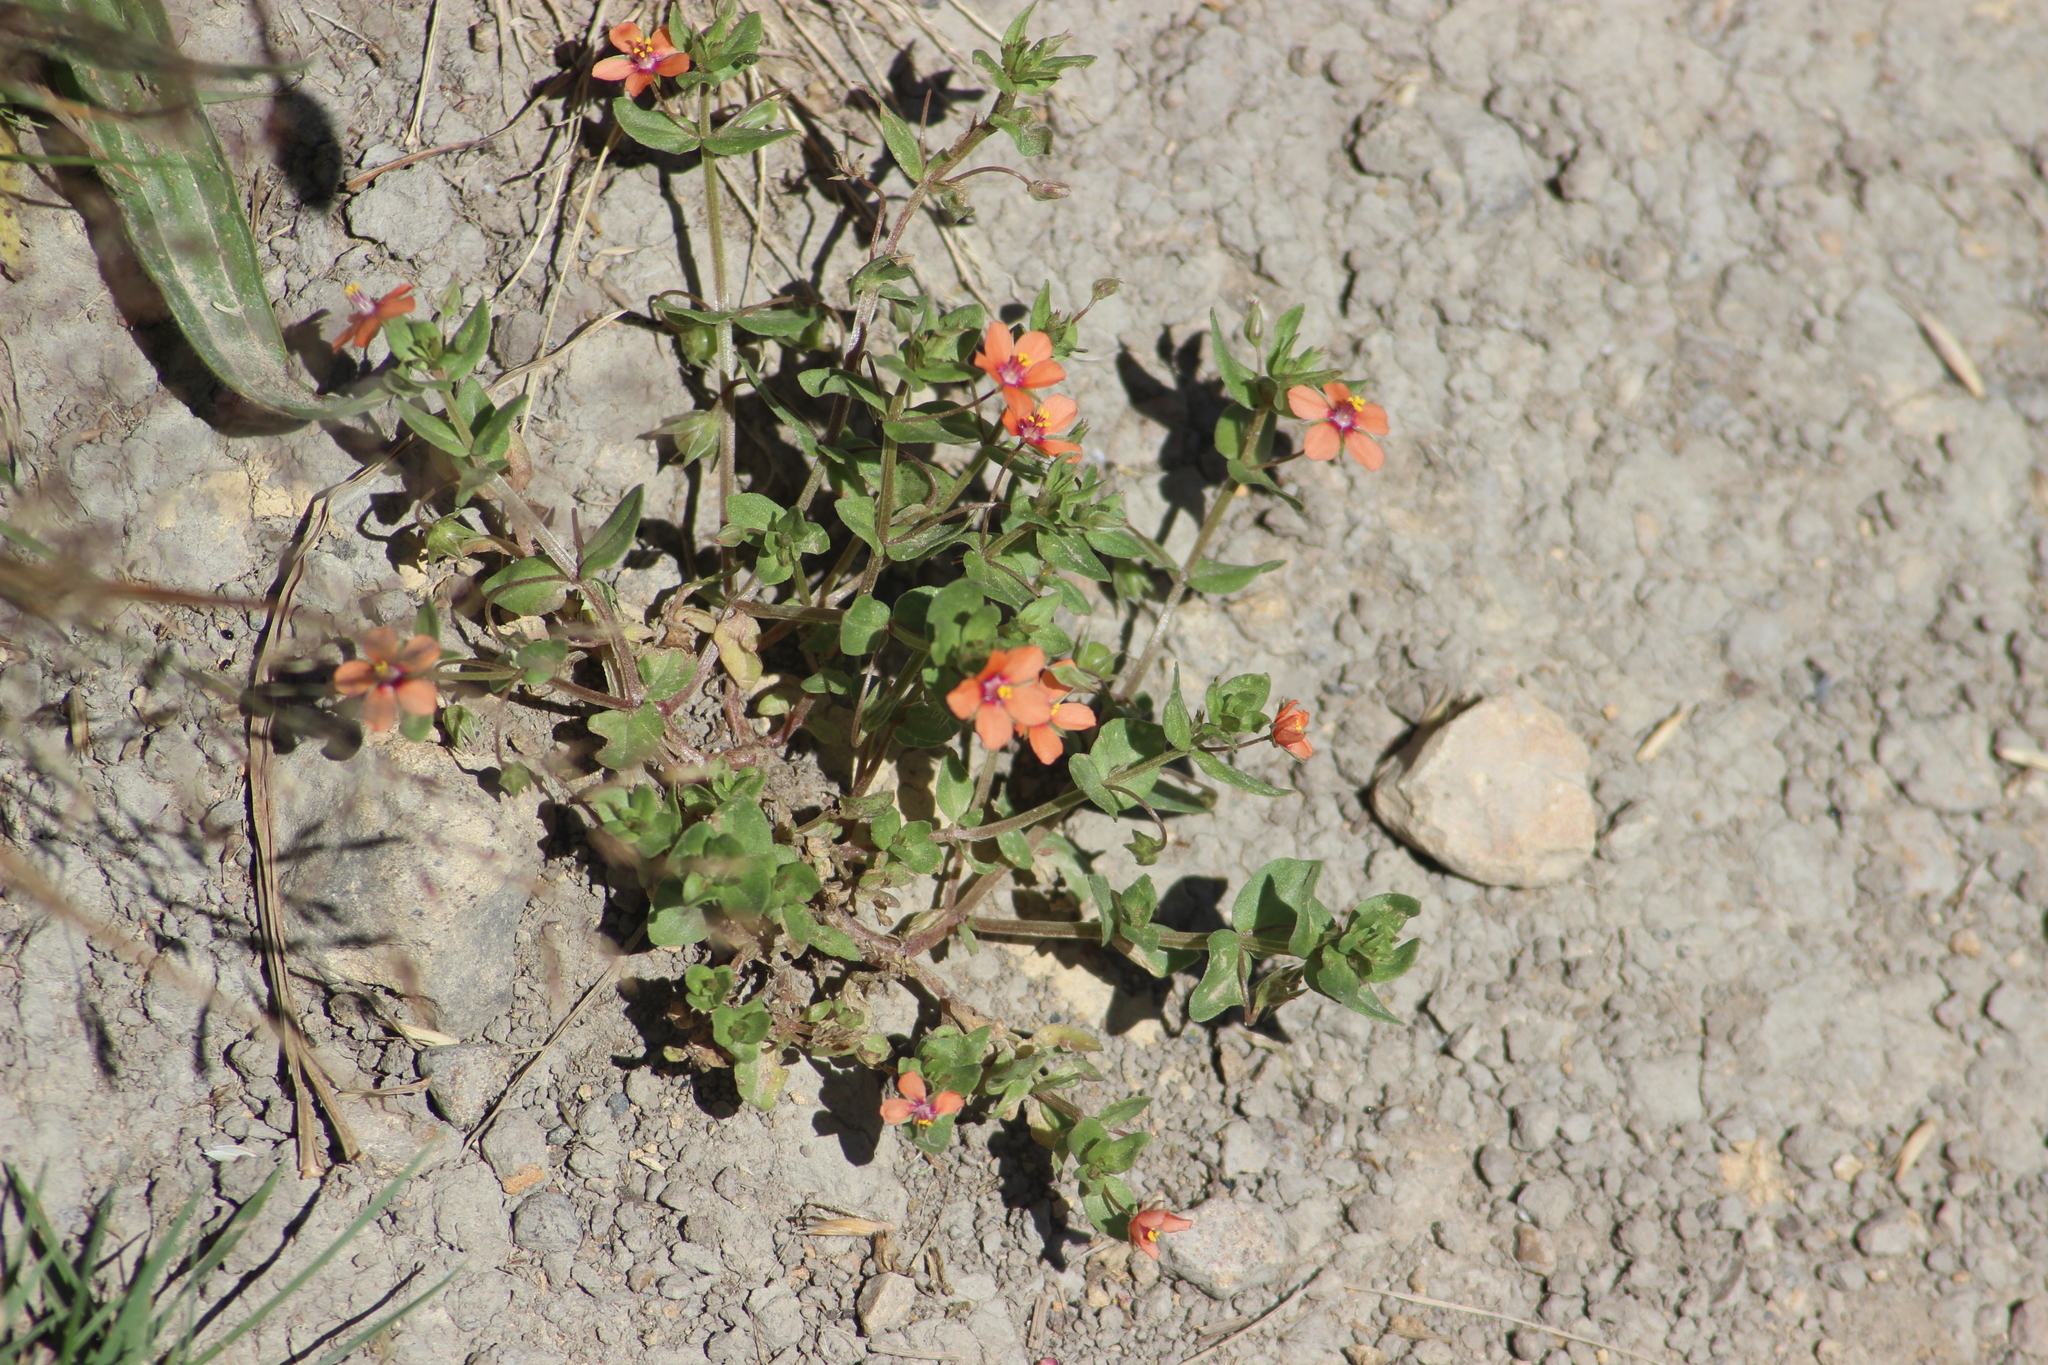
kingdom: Plantae
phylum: Tracheophyta
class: Magnoliopsida
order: Ericales
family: Primulaceae
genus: Lysimachia
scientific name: Lysimachia arvensis
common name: Scarlet pimpernel
